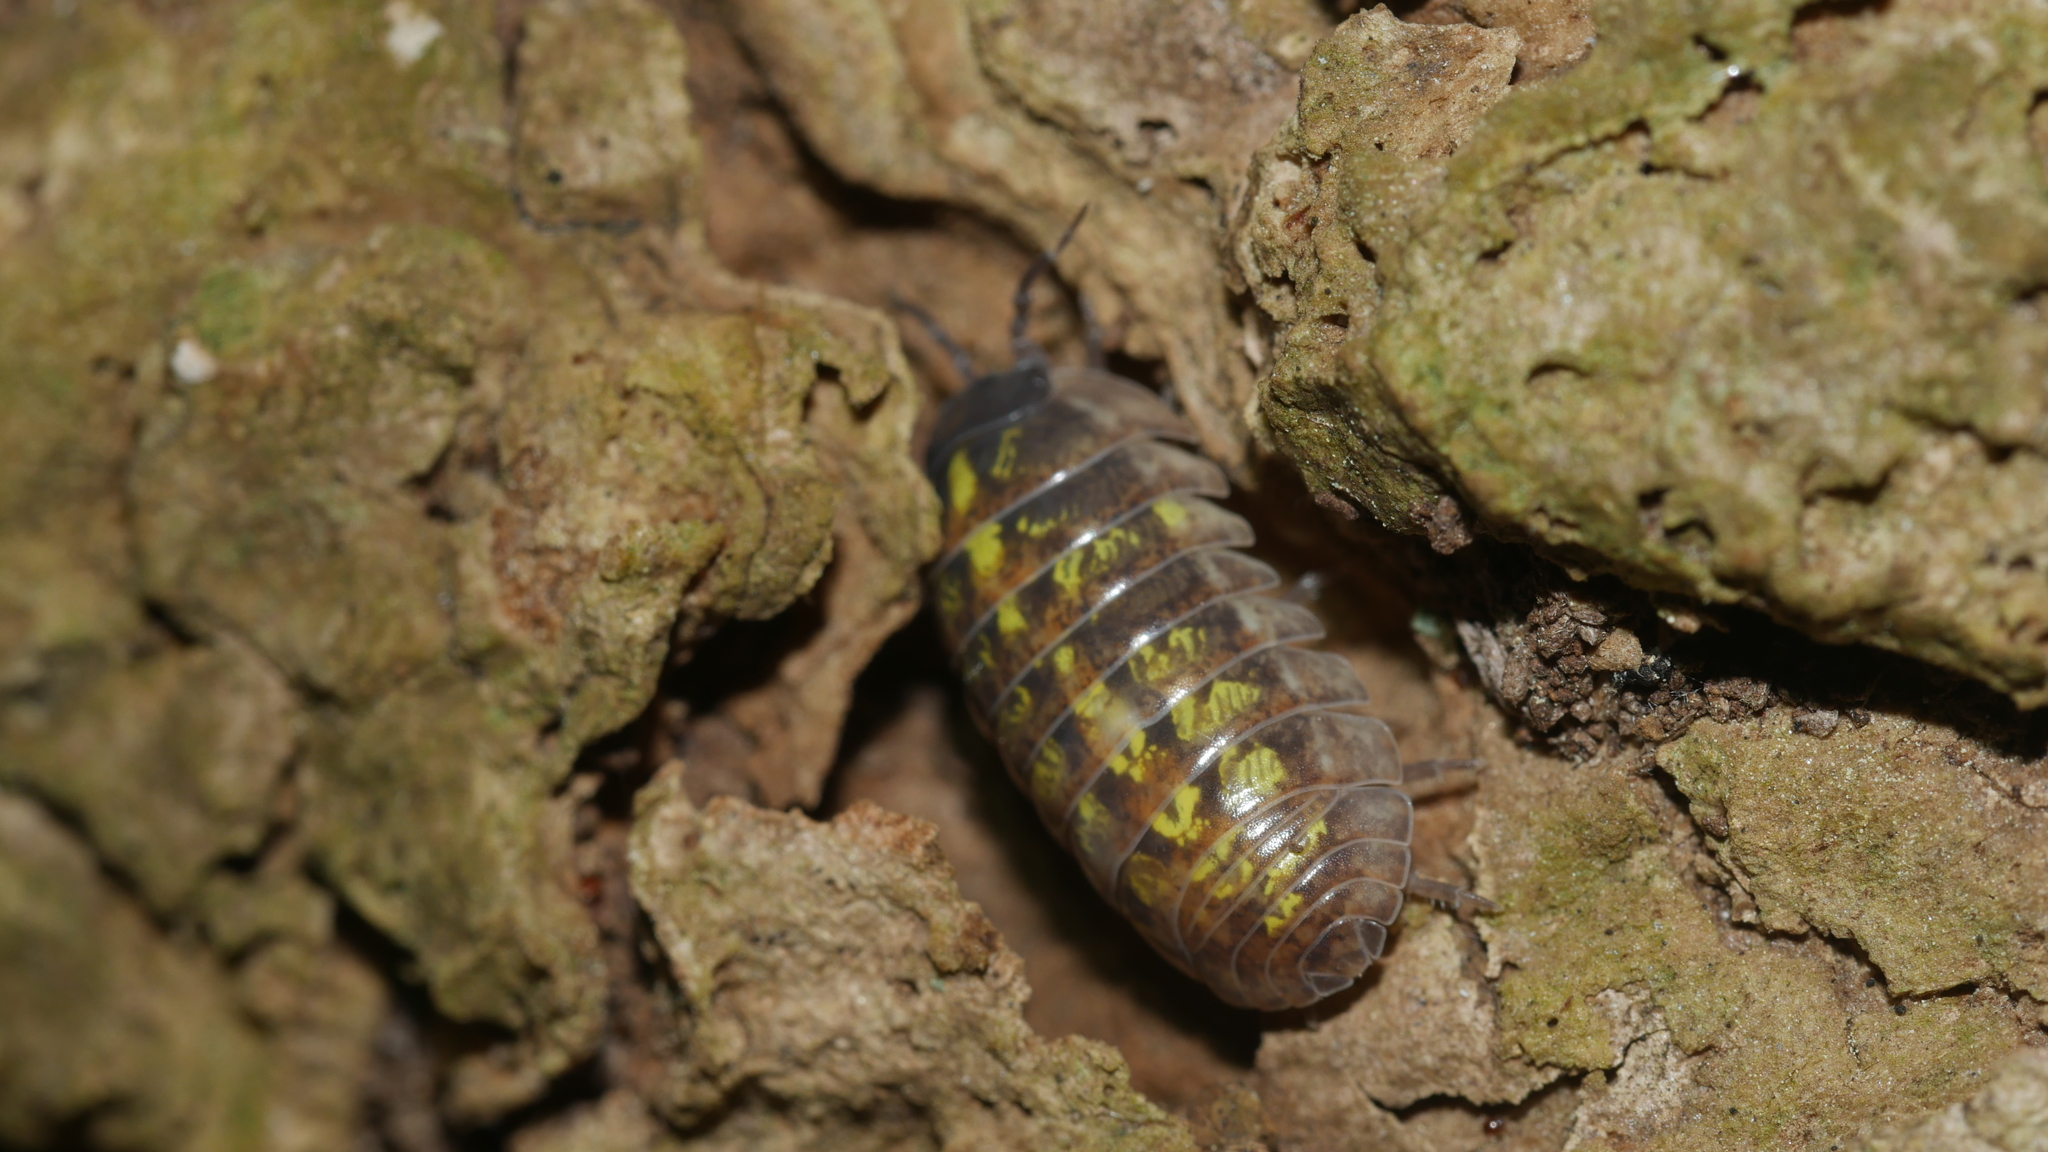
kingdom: Animalia
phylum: Arthropoda
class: Malacostraca
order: Isopoda
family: Armadillidiidae
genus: Armadillidium
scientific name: Armadillidium vulgare
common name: Common pill woodlouse
